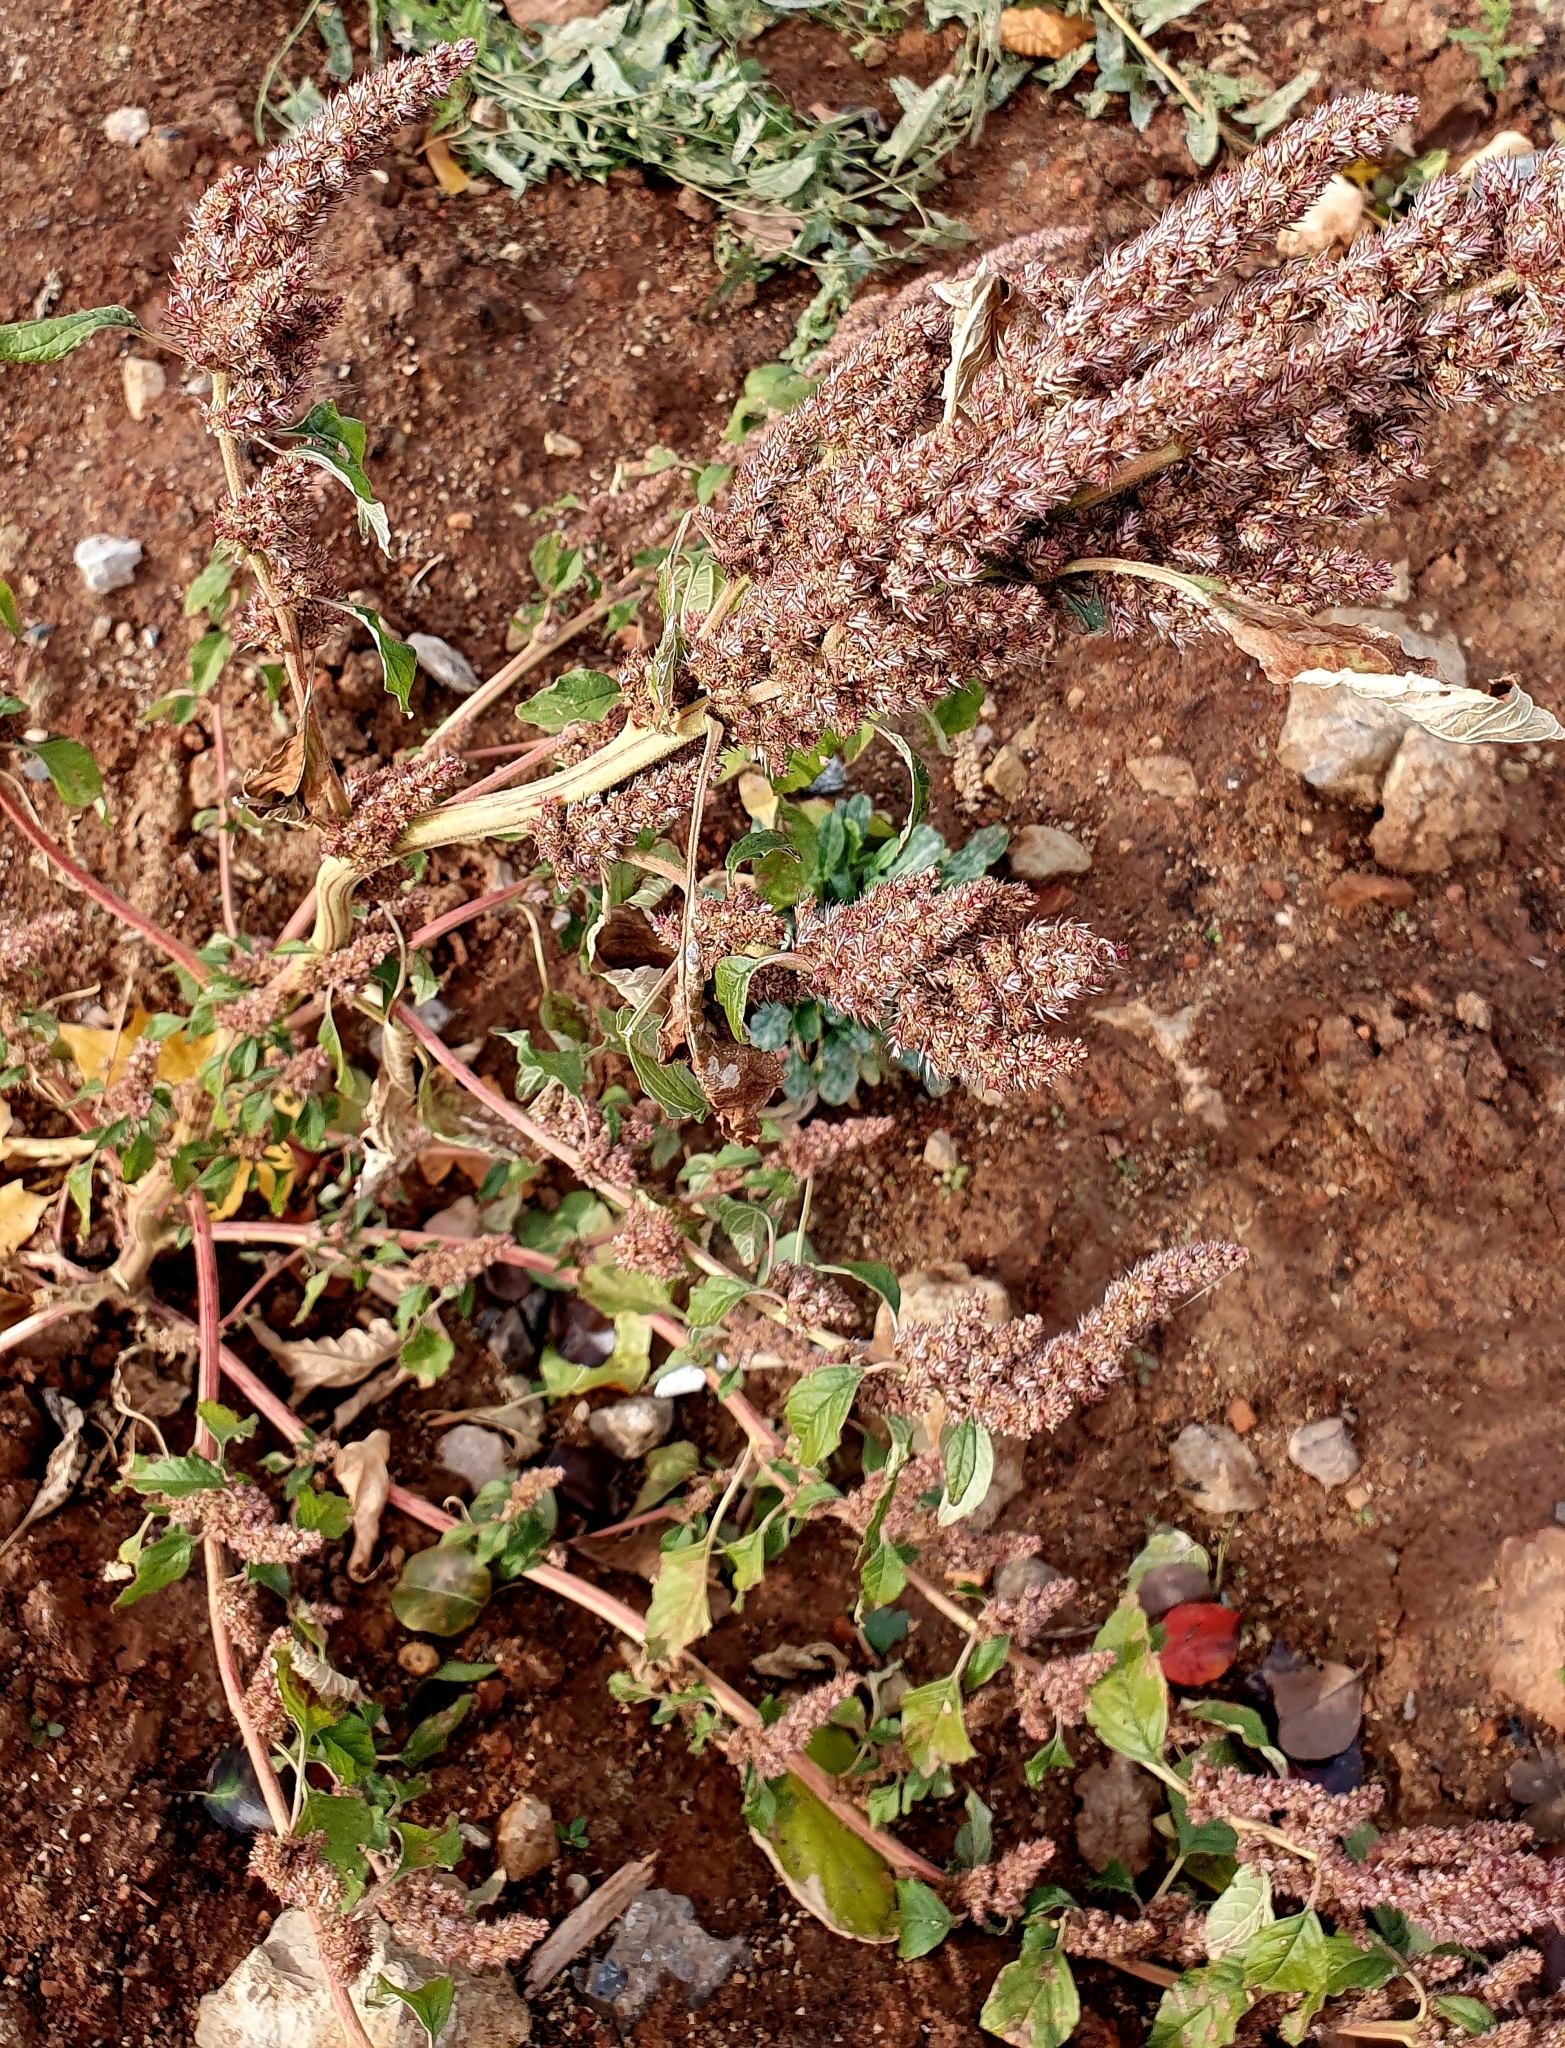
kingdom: Plantae
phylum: Tracheophyta
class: Magnoliopsida
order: Caryophyllales
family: Amaranthaceae
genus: Amaranthus
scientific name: Amaranthus retroflexus
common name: Redroot amaranth
